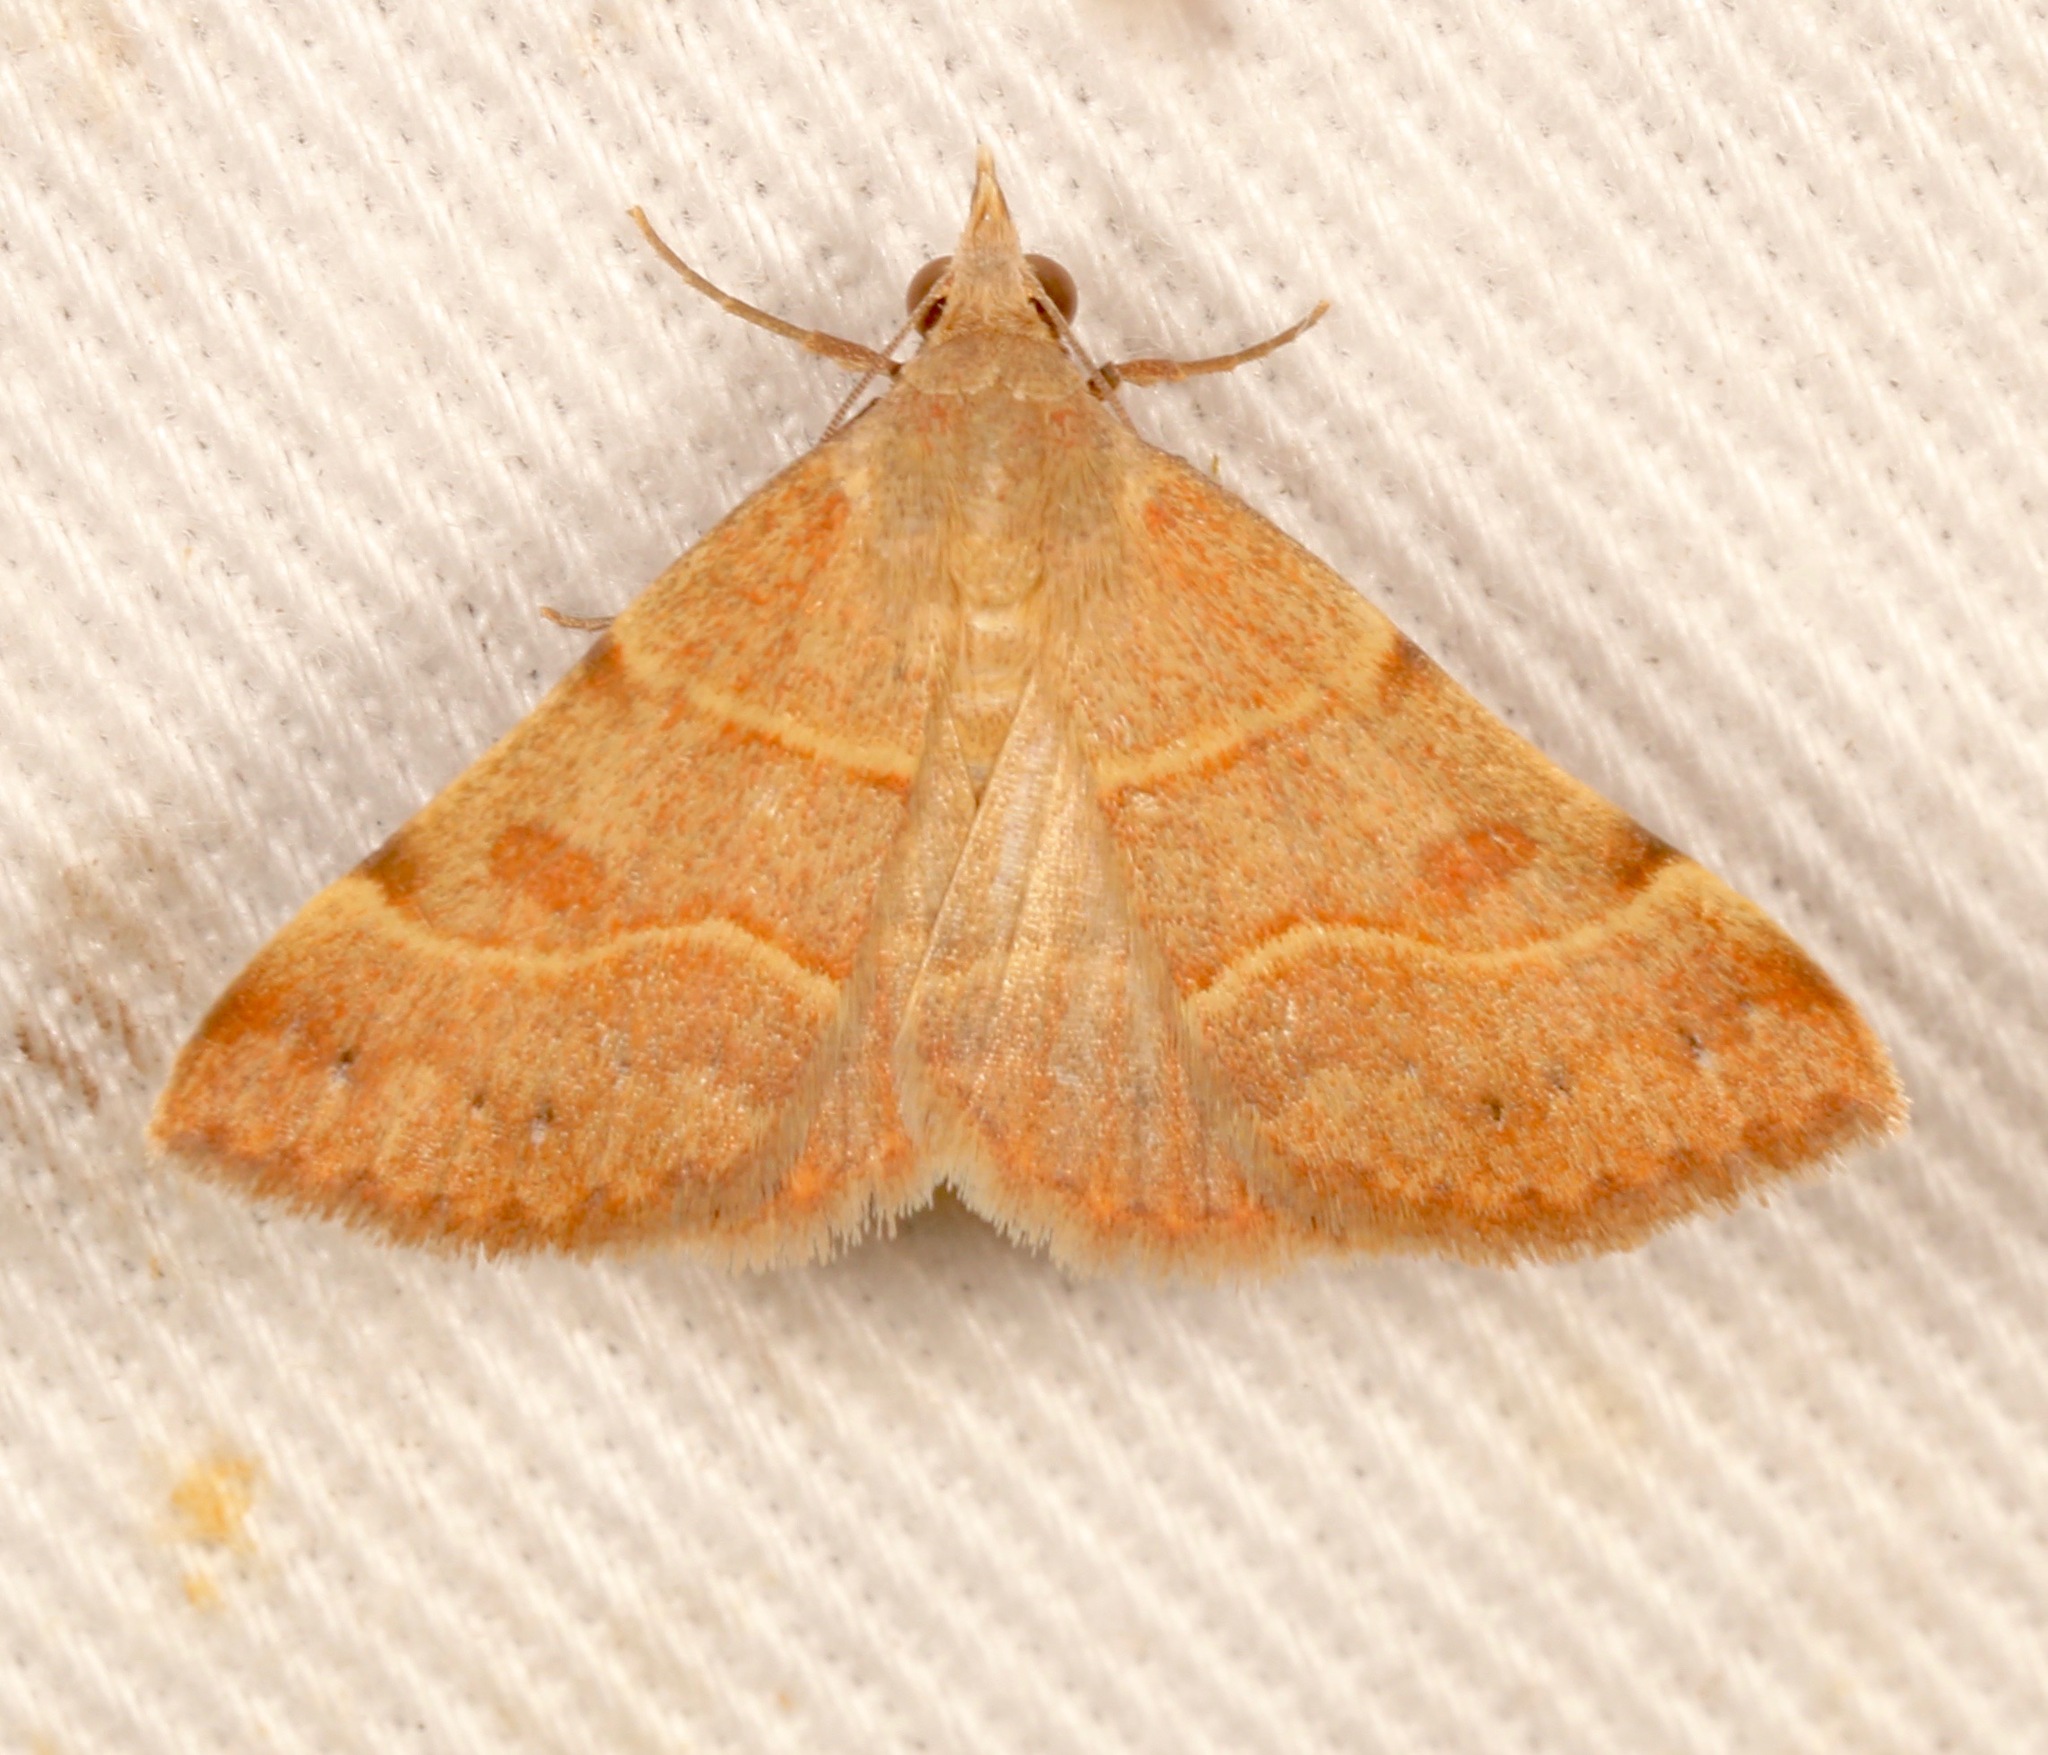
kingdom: Animalia
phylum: Arthropoda
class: Insecta
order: Lepidoptera
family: Erebidae
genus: Hemeroplanis
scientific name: Hemeroplanis rectalis
